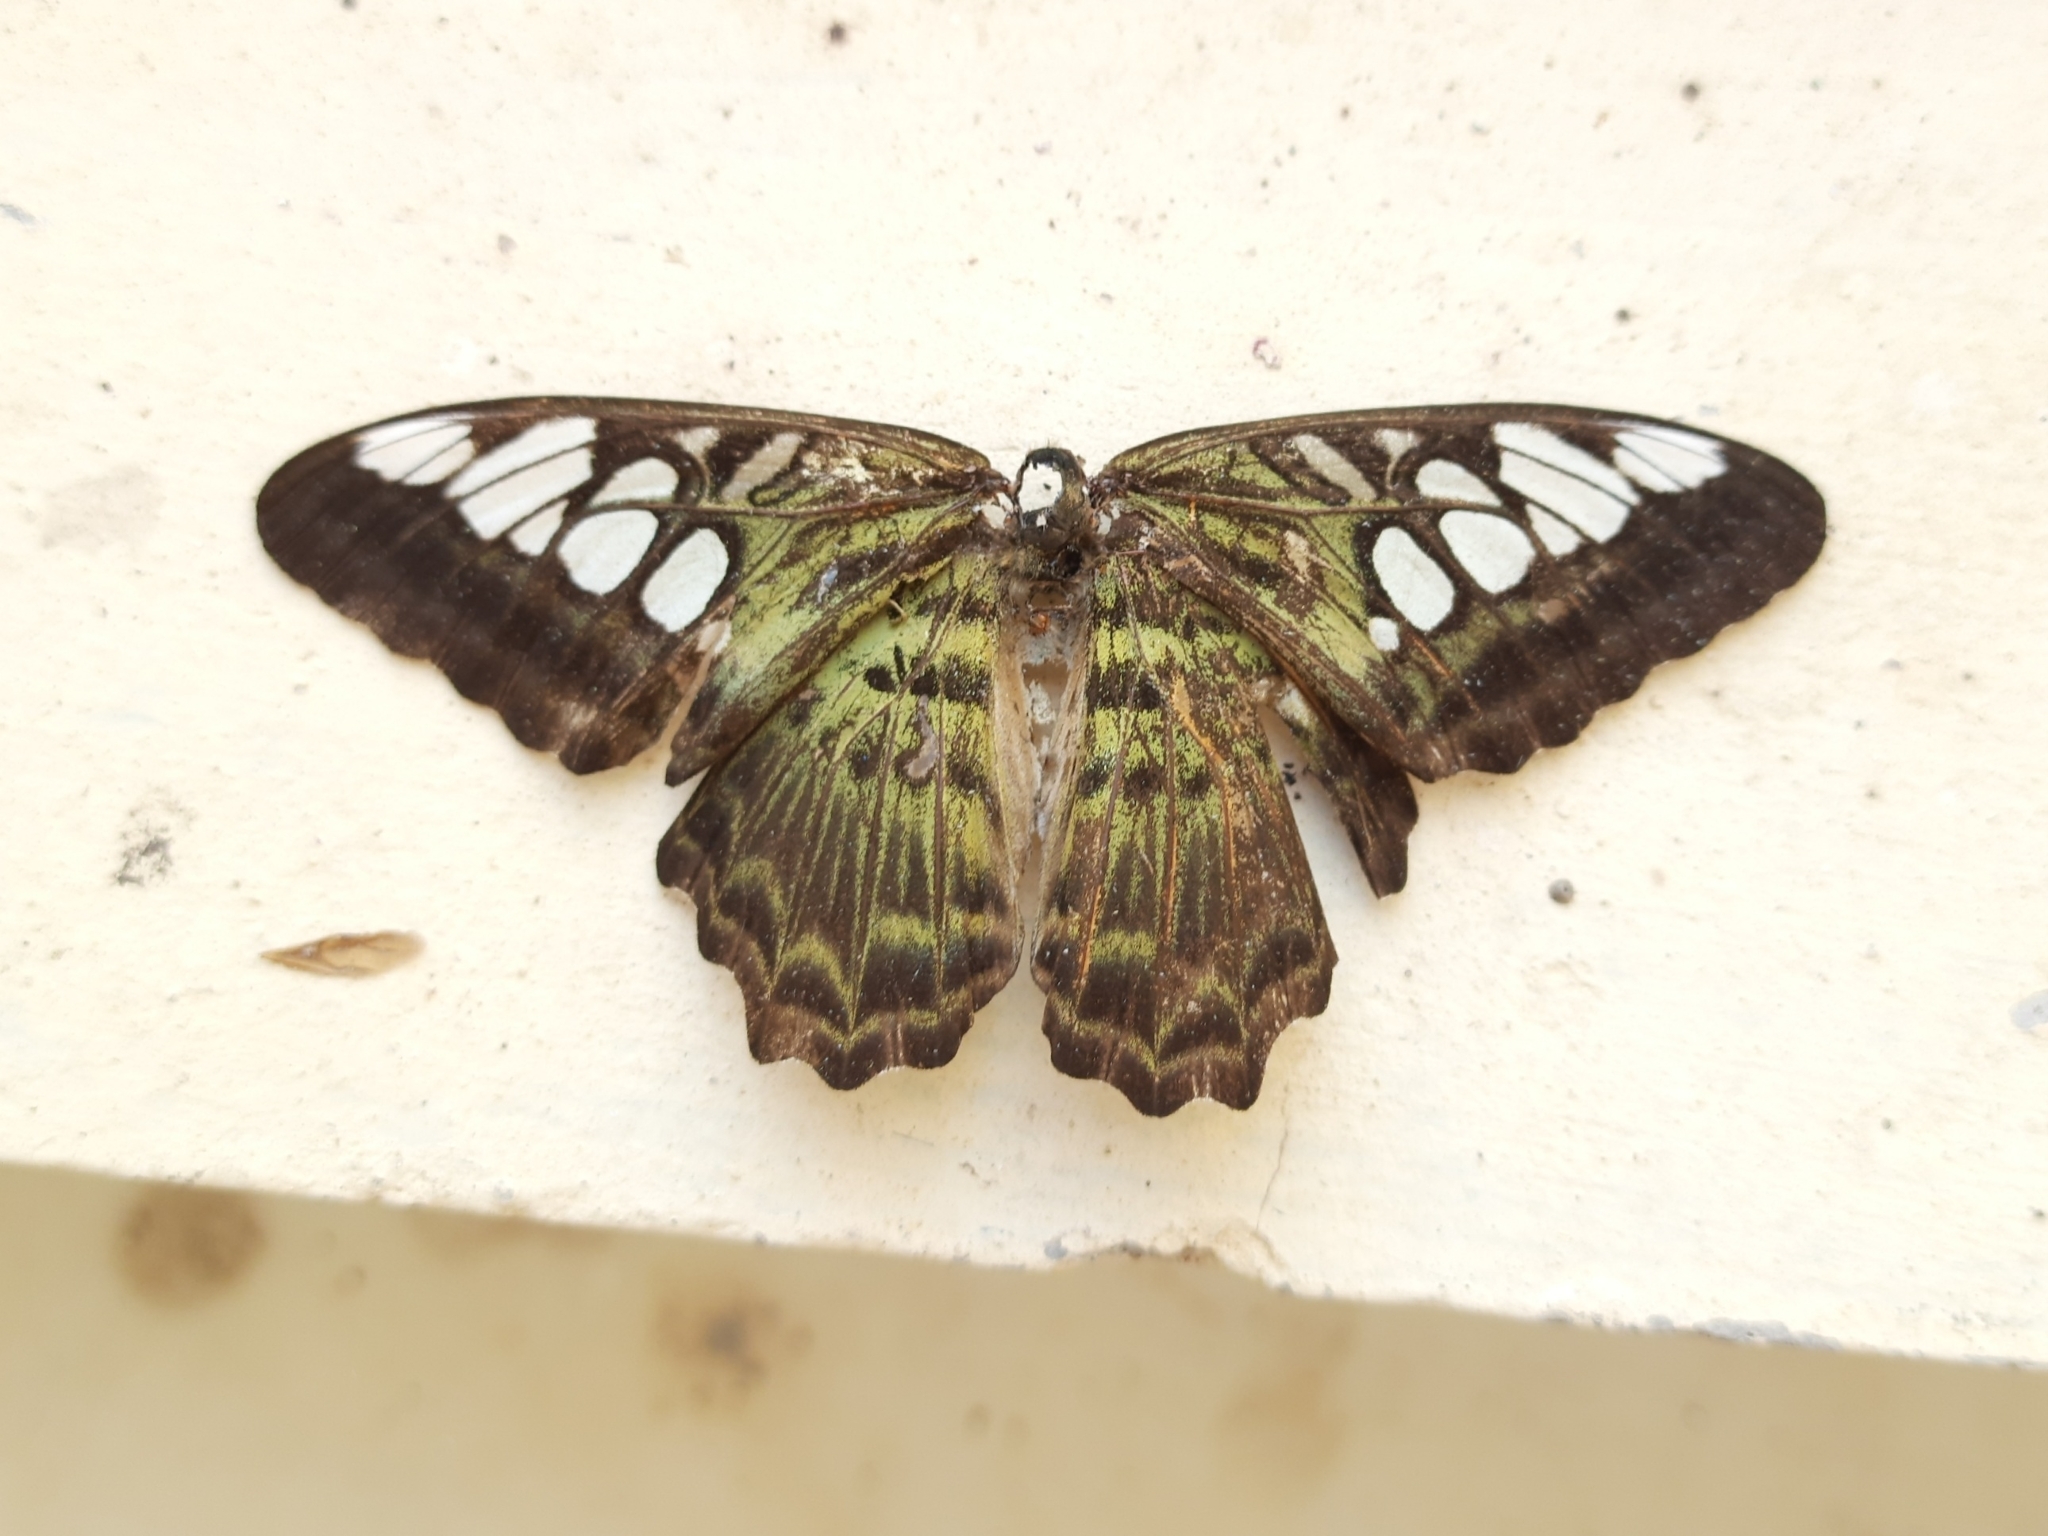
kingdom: Animalia
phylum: Arthropoda
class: Insecta
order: Lepidoptera
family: Nymphalidae
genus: Kallima
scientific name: Kallima sylvia
